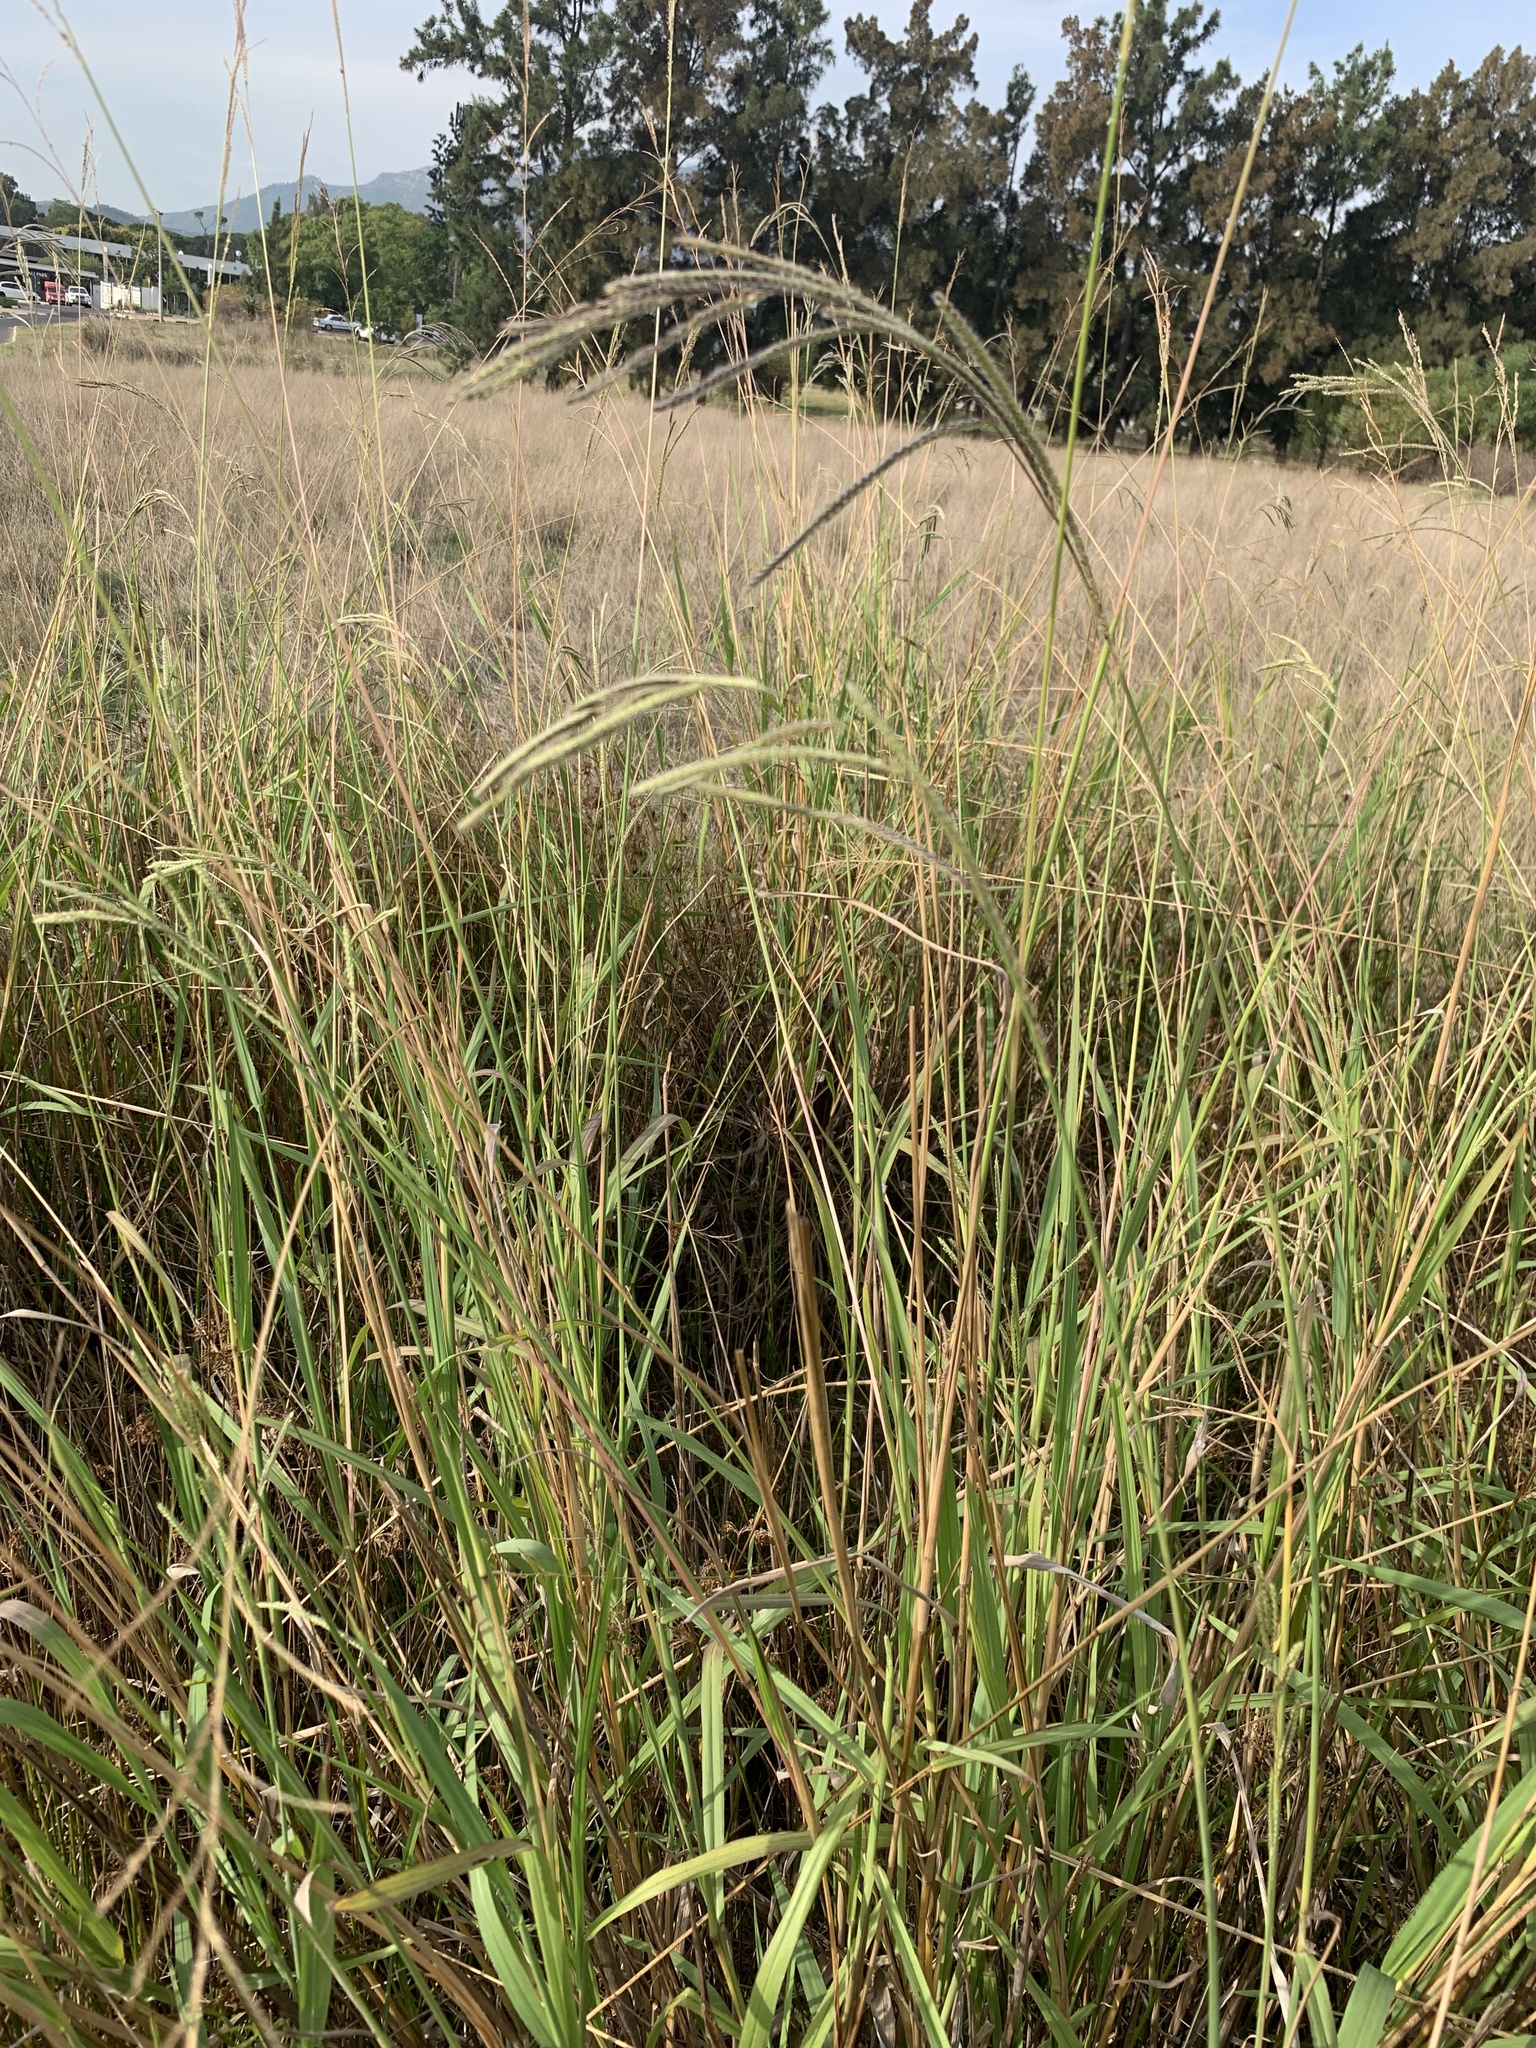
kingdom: Plantae
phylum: Tracheophyta
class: Liliopsida
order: Poales
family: Poaceae
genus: Paspalum
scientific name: Paspalum urvillei
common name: Vasey's grass
